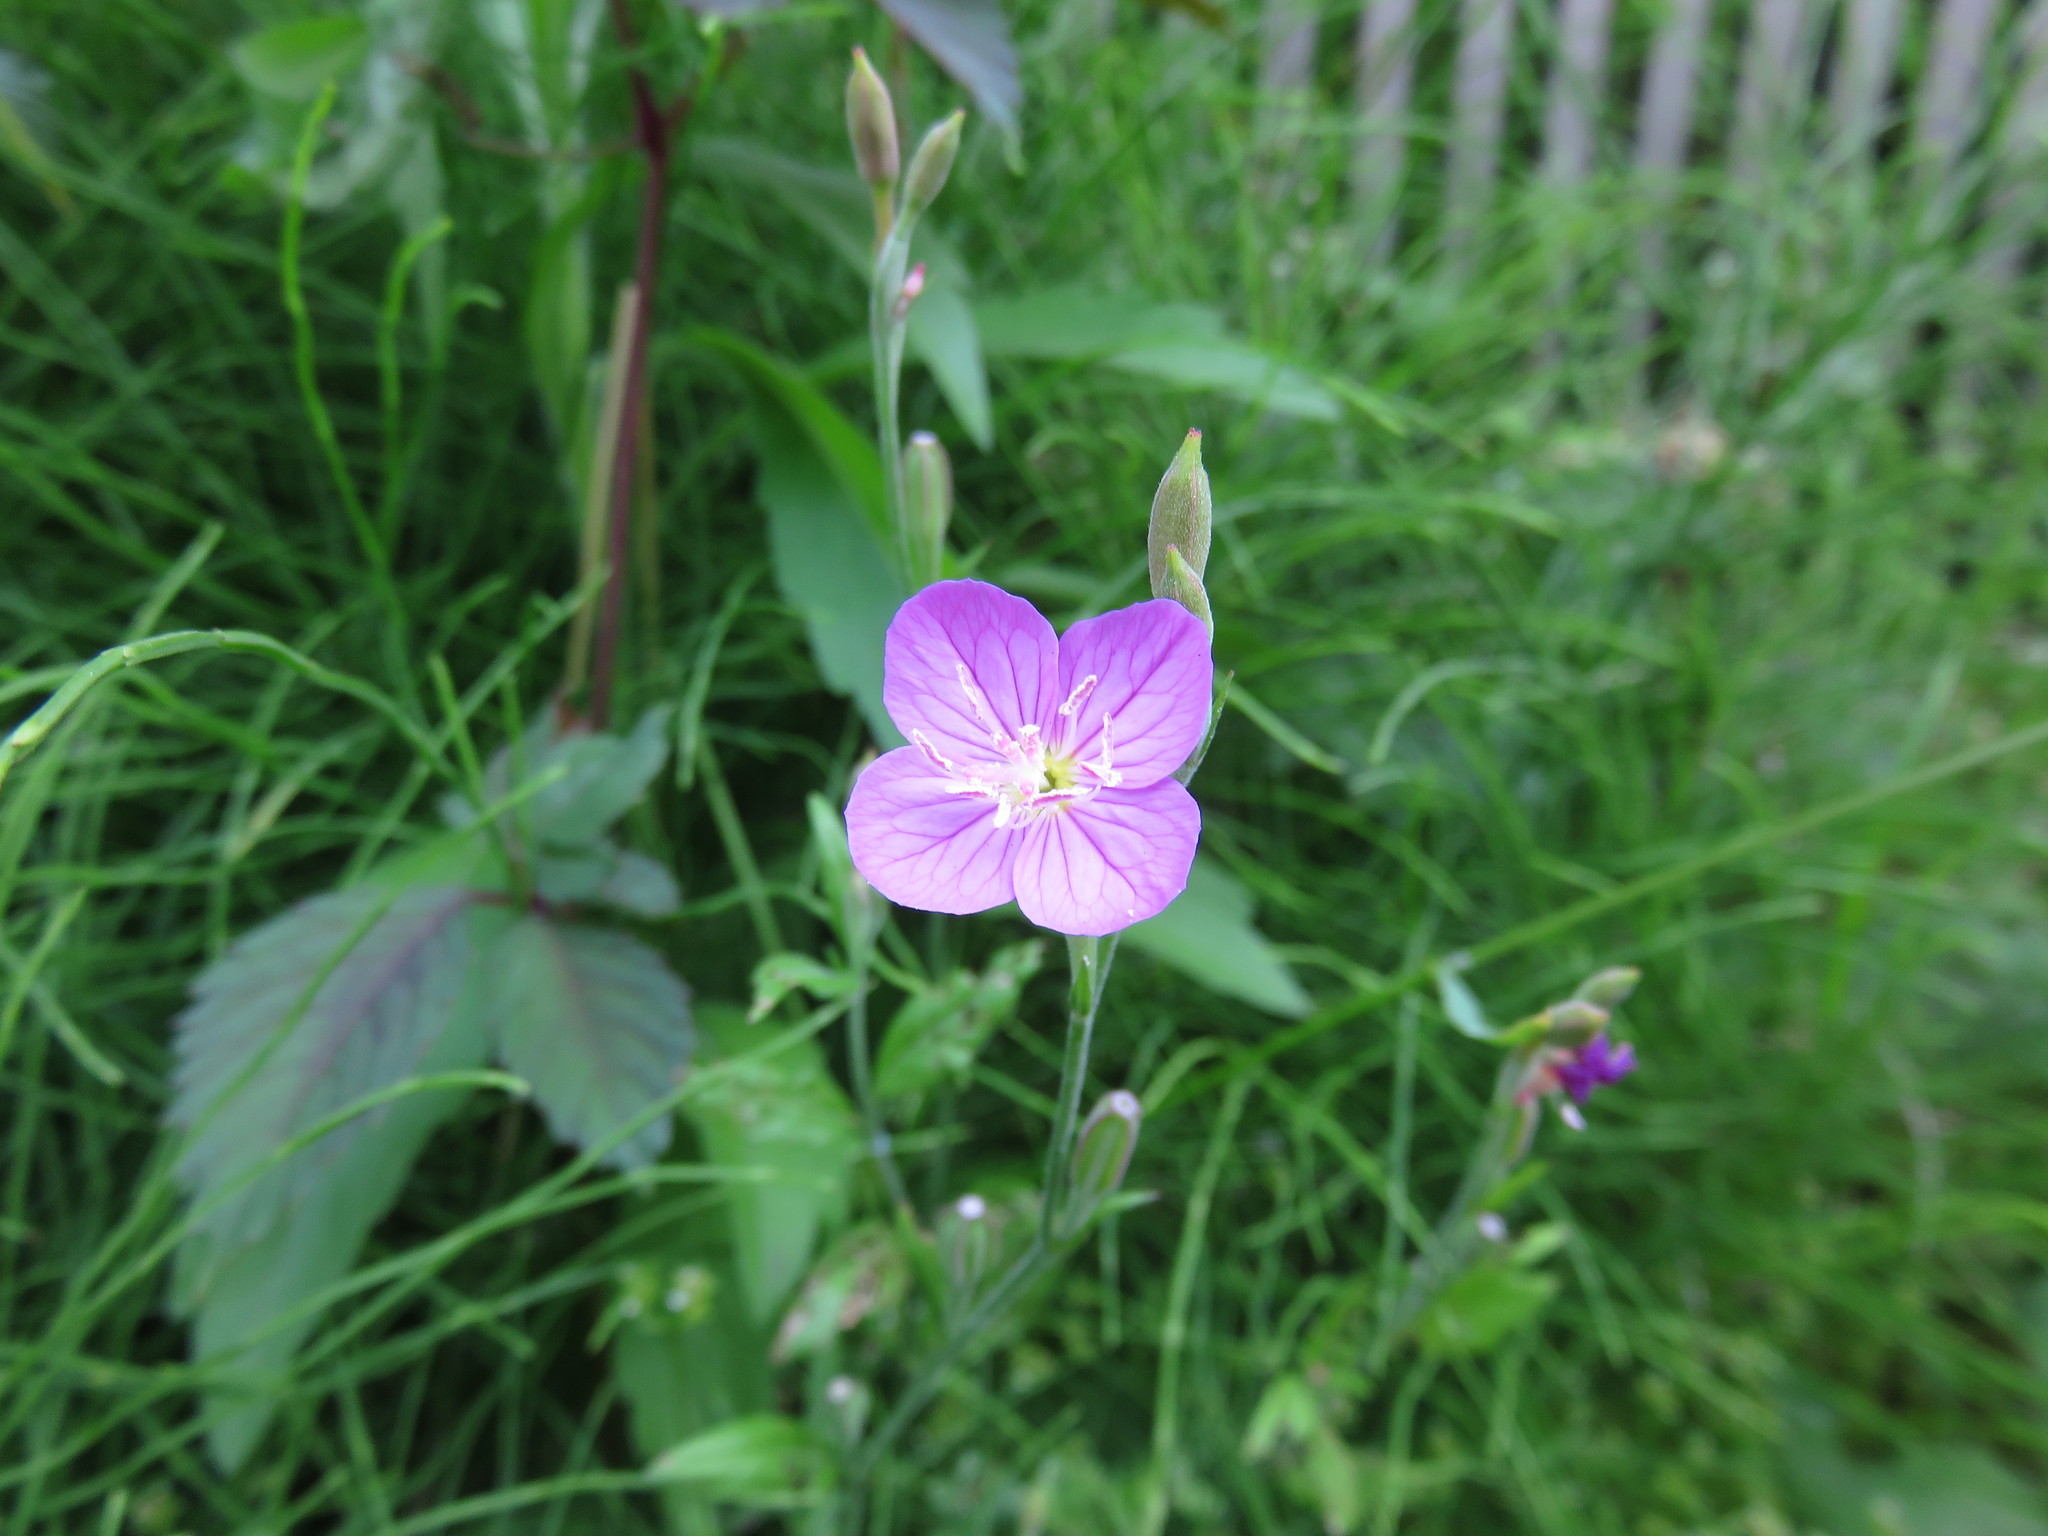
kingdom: Plantae
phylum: Tracheophyta
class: Magnoliopsida
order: Myrtales
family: Onagraceae
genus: Oenothera
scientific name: Oenothera rosea
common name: Rosy evening-primrose
